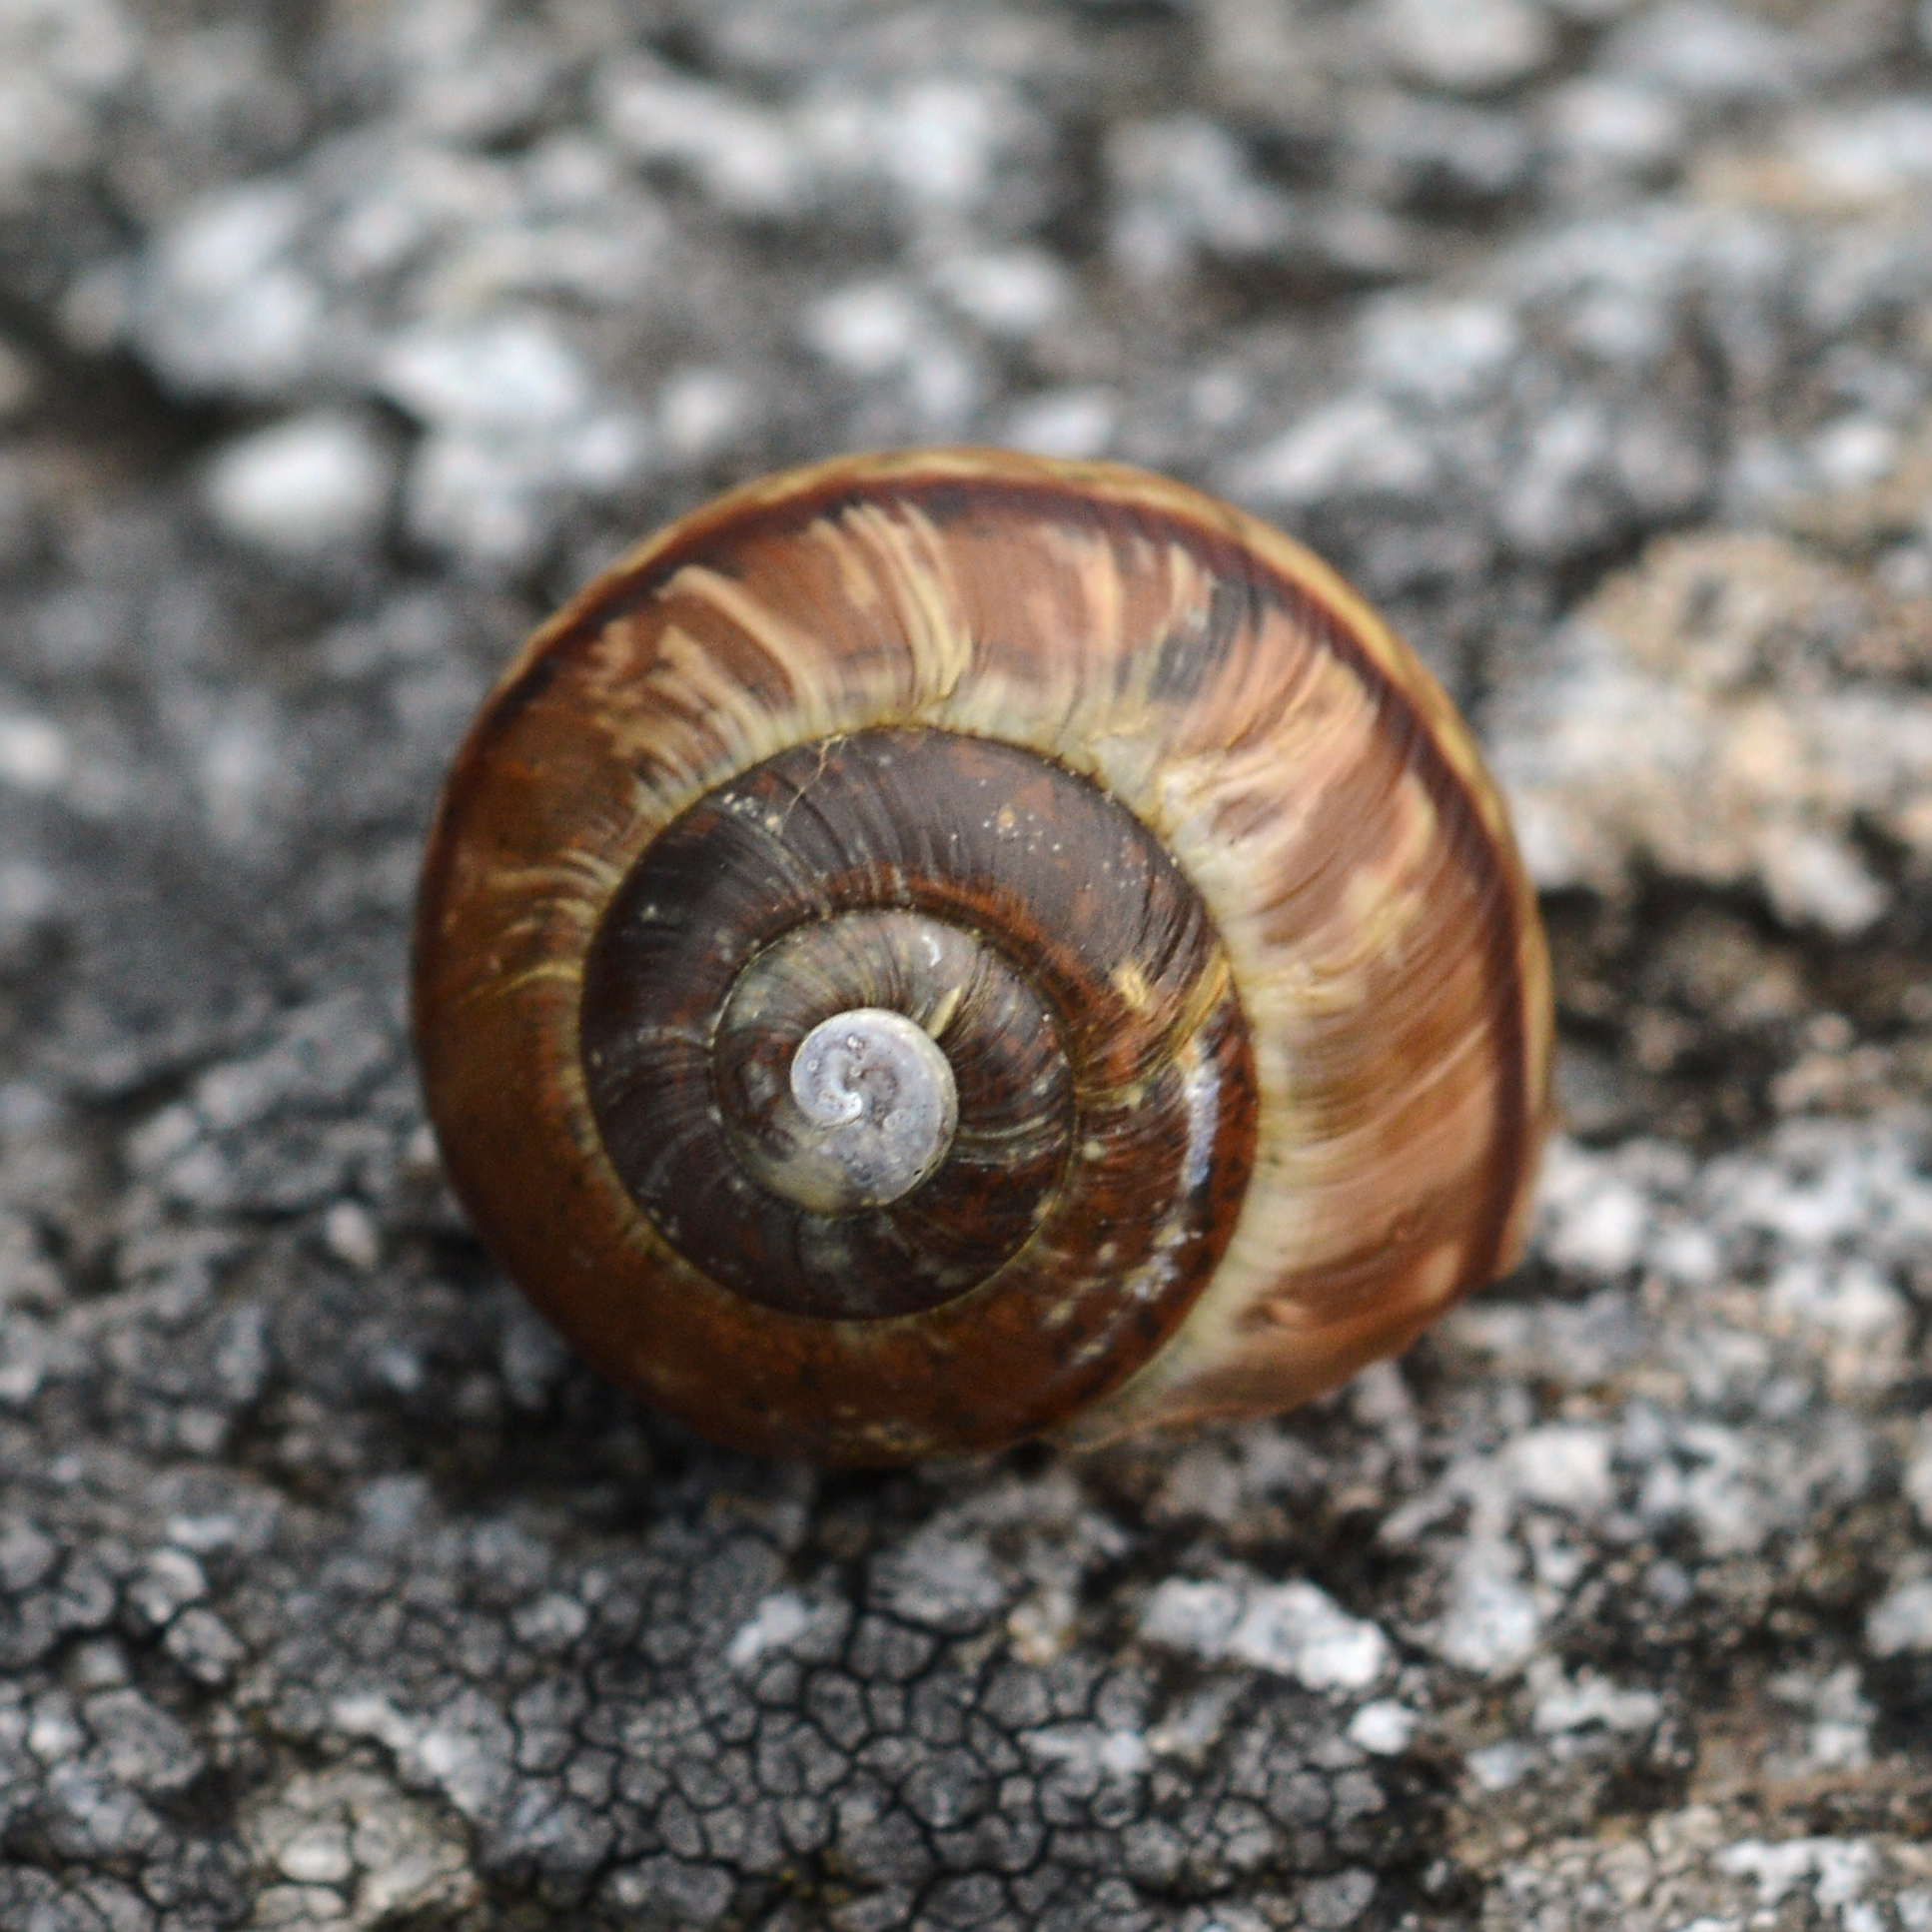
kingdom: Animalia
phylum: Mollusca
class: Gastropoda
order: Stylommatophora
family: Helicidae
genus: Arianta
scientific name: Arianta arbustorum
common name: Copse snail
